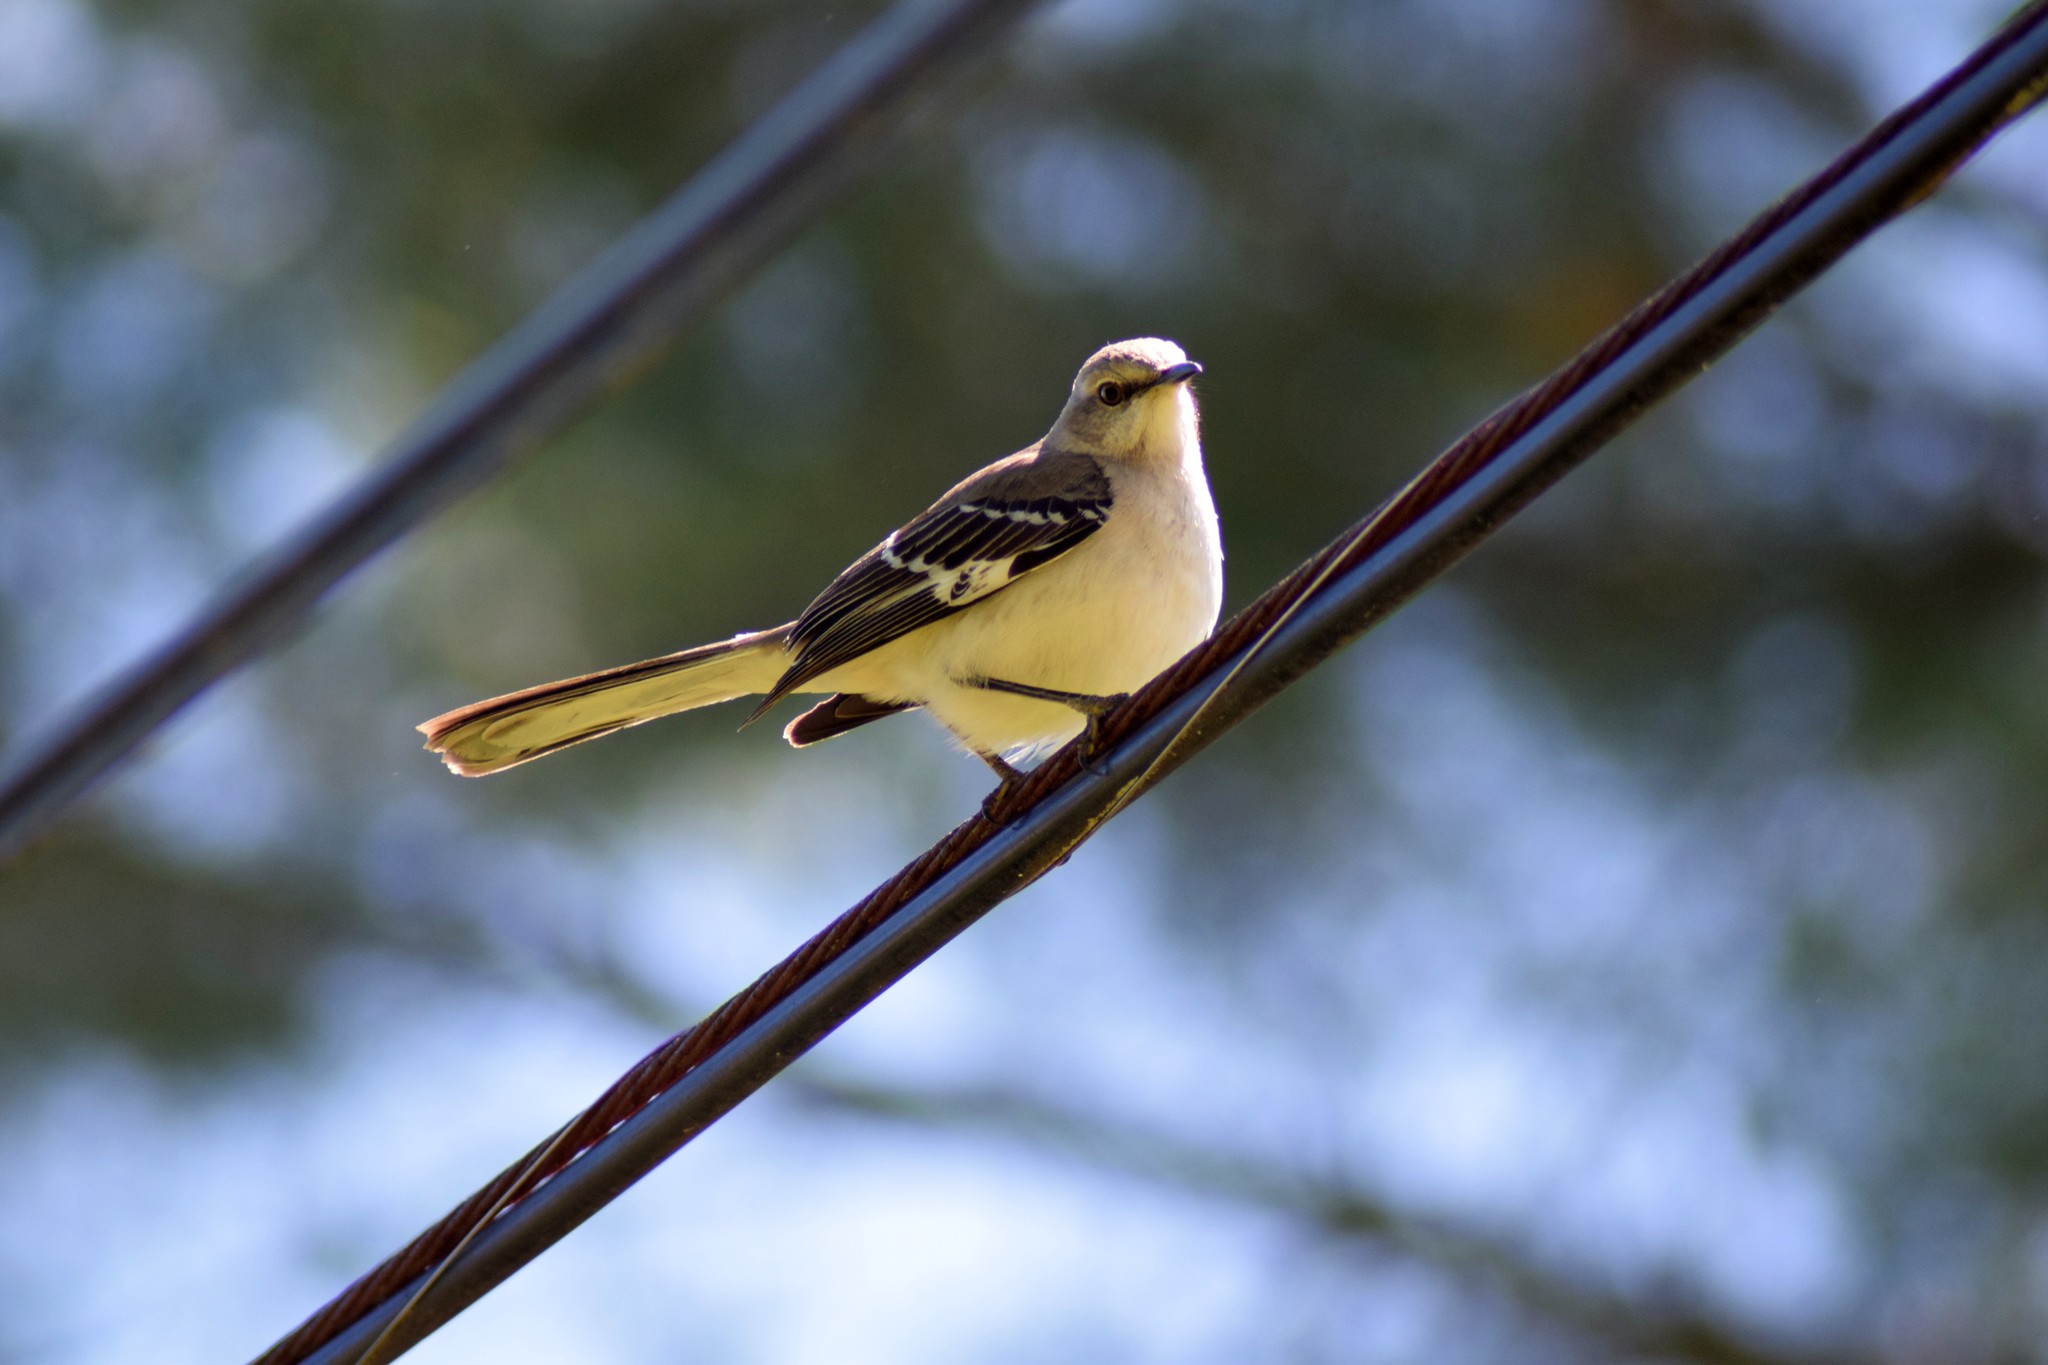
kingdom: Animalia
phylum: Chordata
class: Aves
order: Passeriformes
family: Mimidae
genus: Mimus
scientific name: Mimus polyglottos
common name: Northern mockingbird
